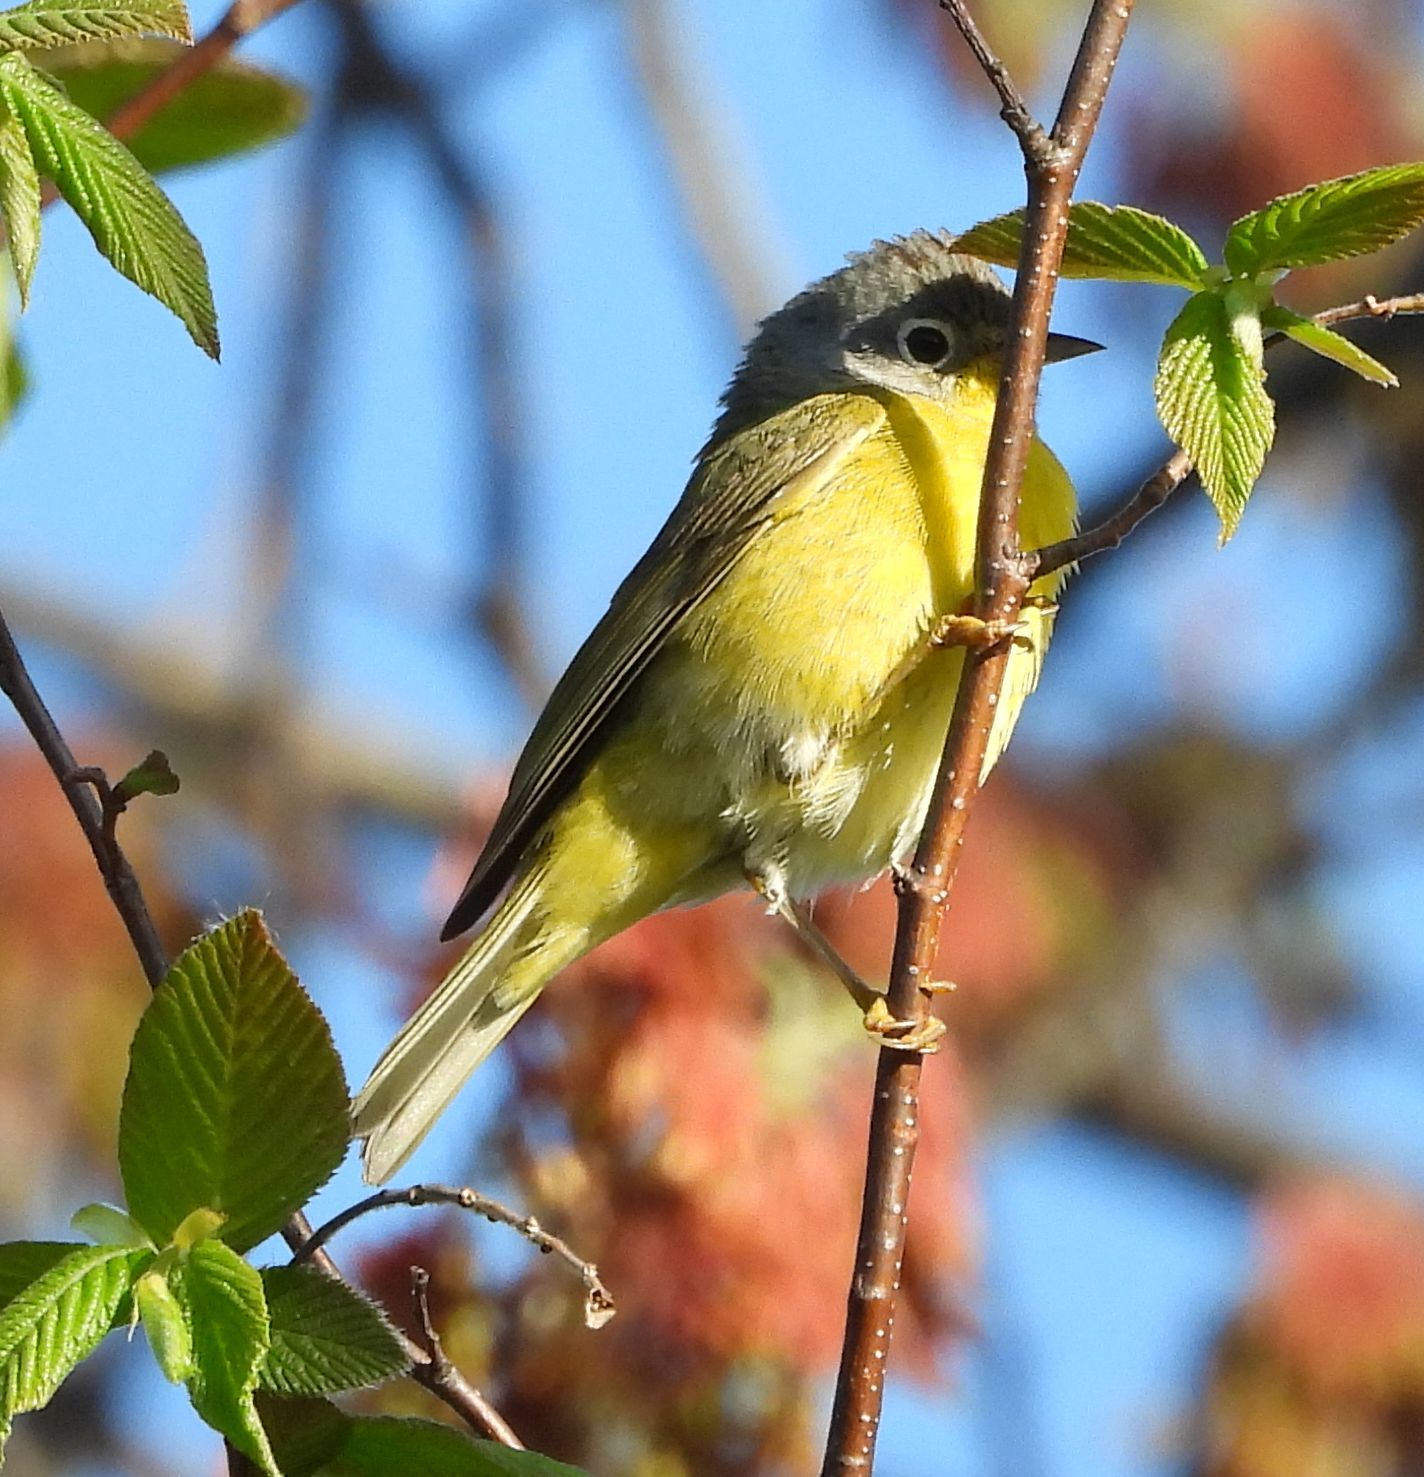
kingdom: Animalia
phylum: Chordata
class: Aves
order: Passeriformes
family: Parulidae
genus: Leiothlypis
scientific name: Leiothlypis ruficapilla
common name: Nashville warbler
